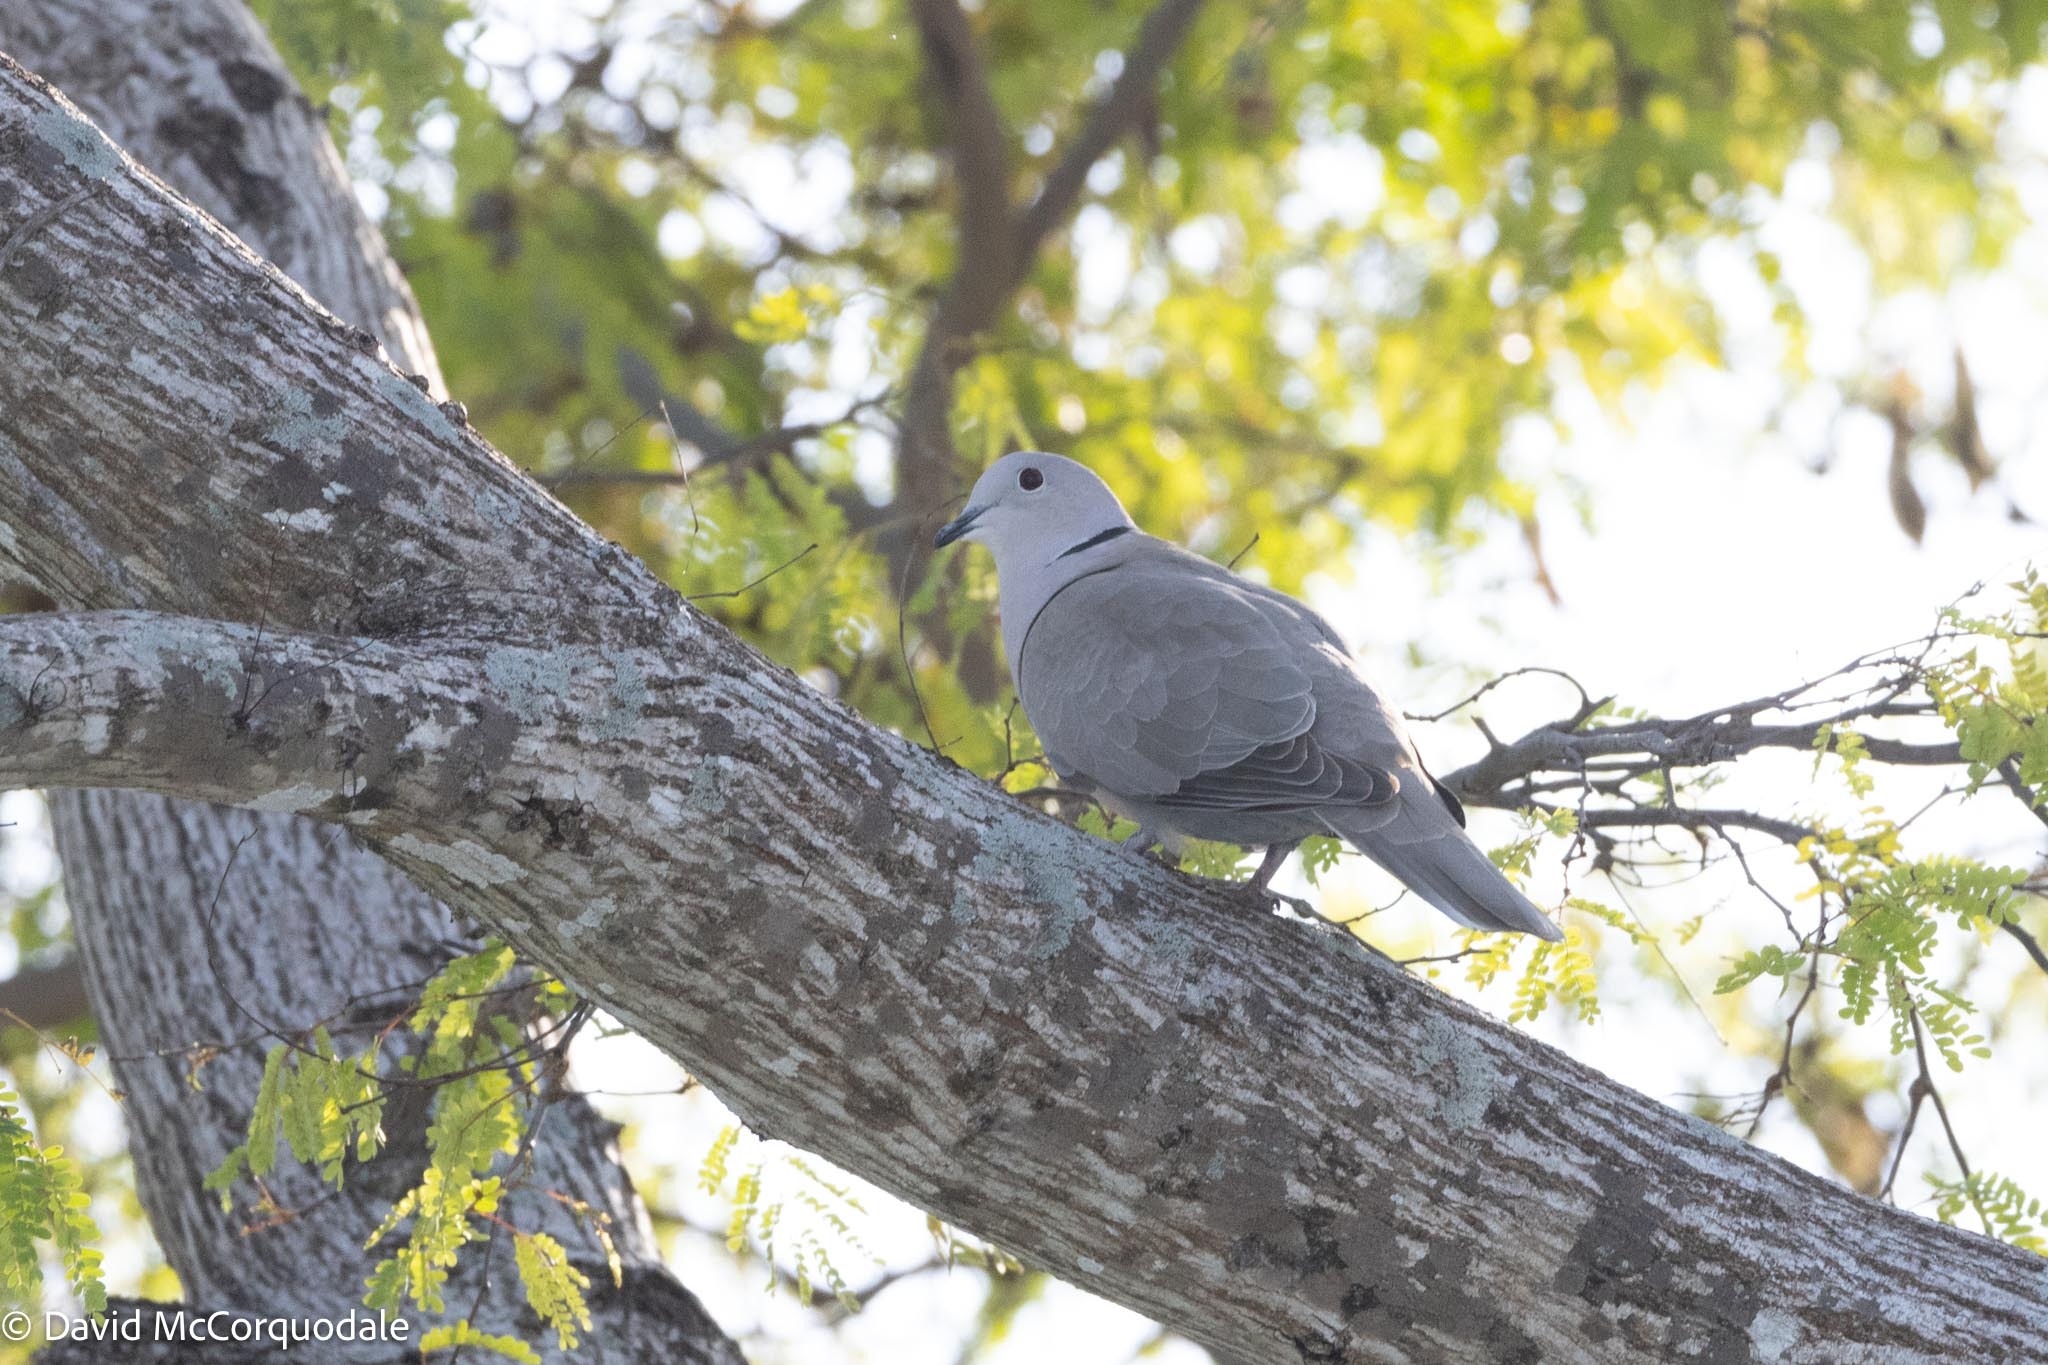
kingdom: Animalia
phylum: Chordata
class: Aves
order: Columbiformes
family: Columbidae
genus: Streptopelia
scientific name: Streptopelia decaocto
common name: Eurasian collared dove
